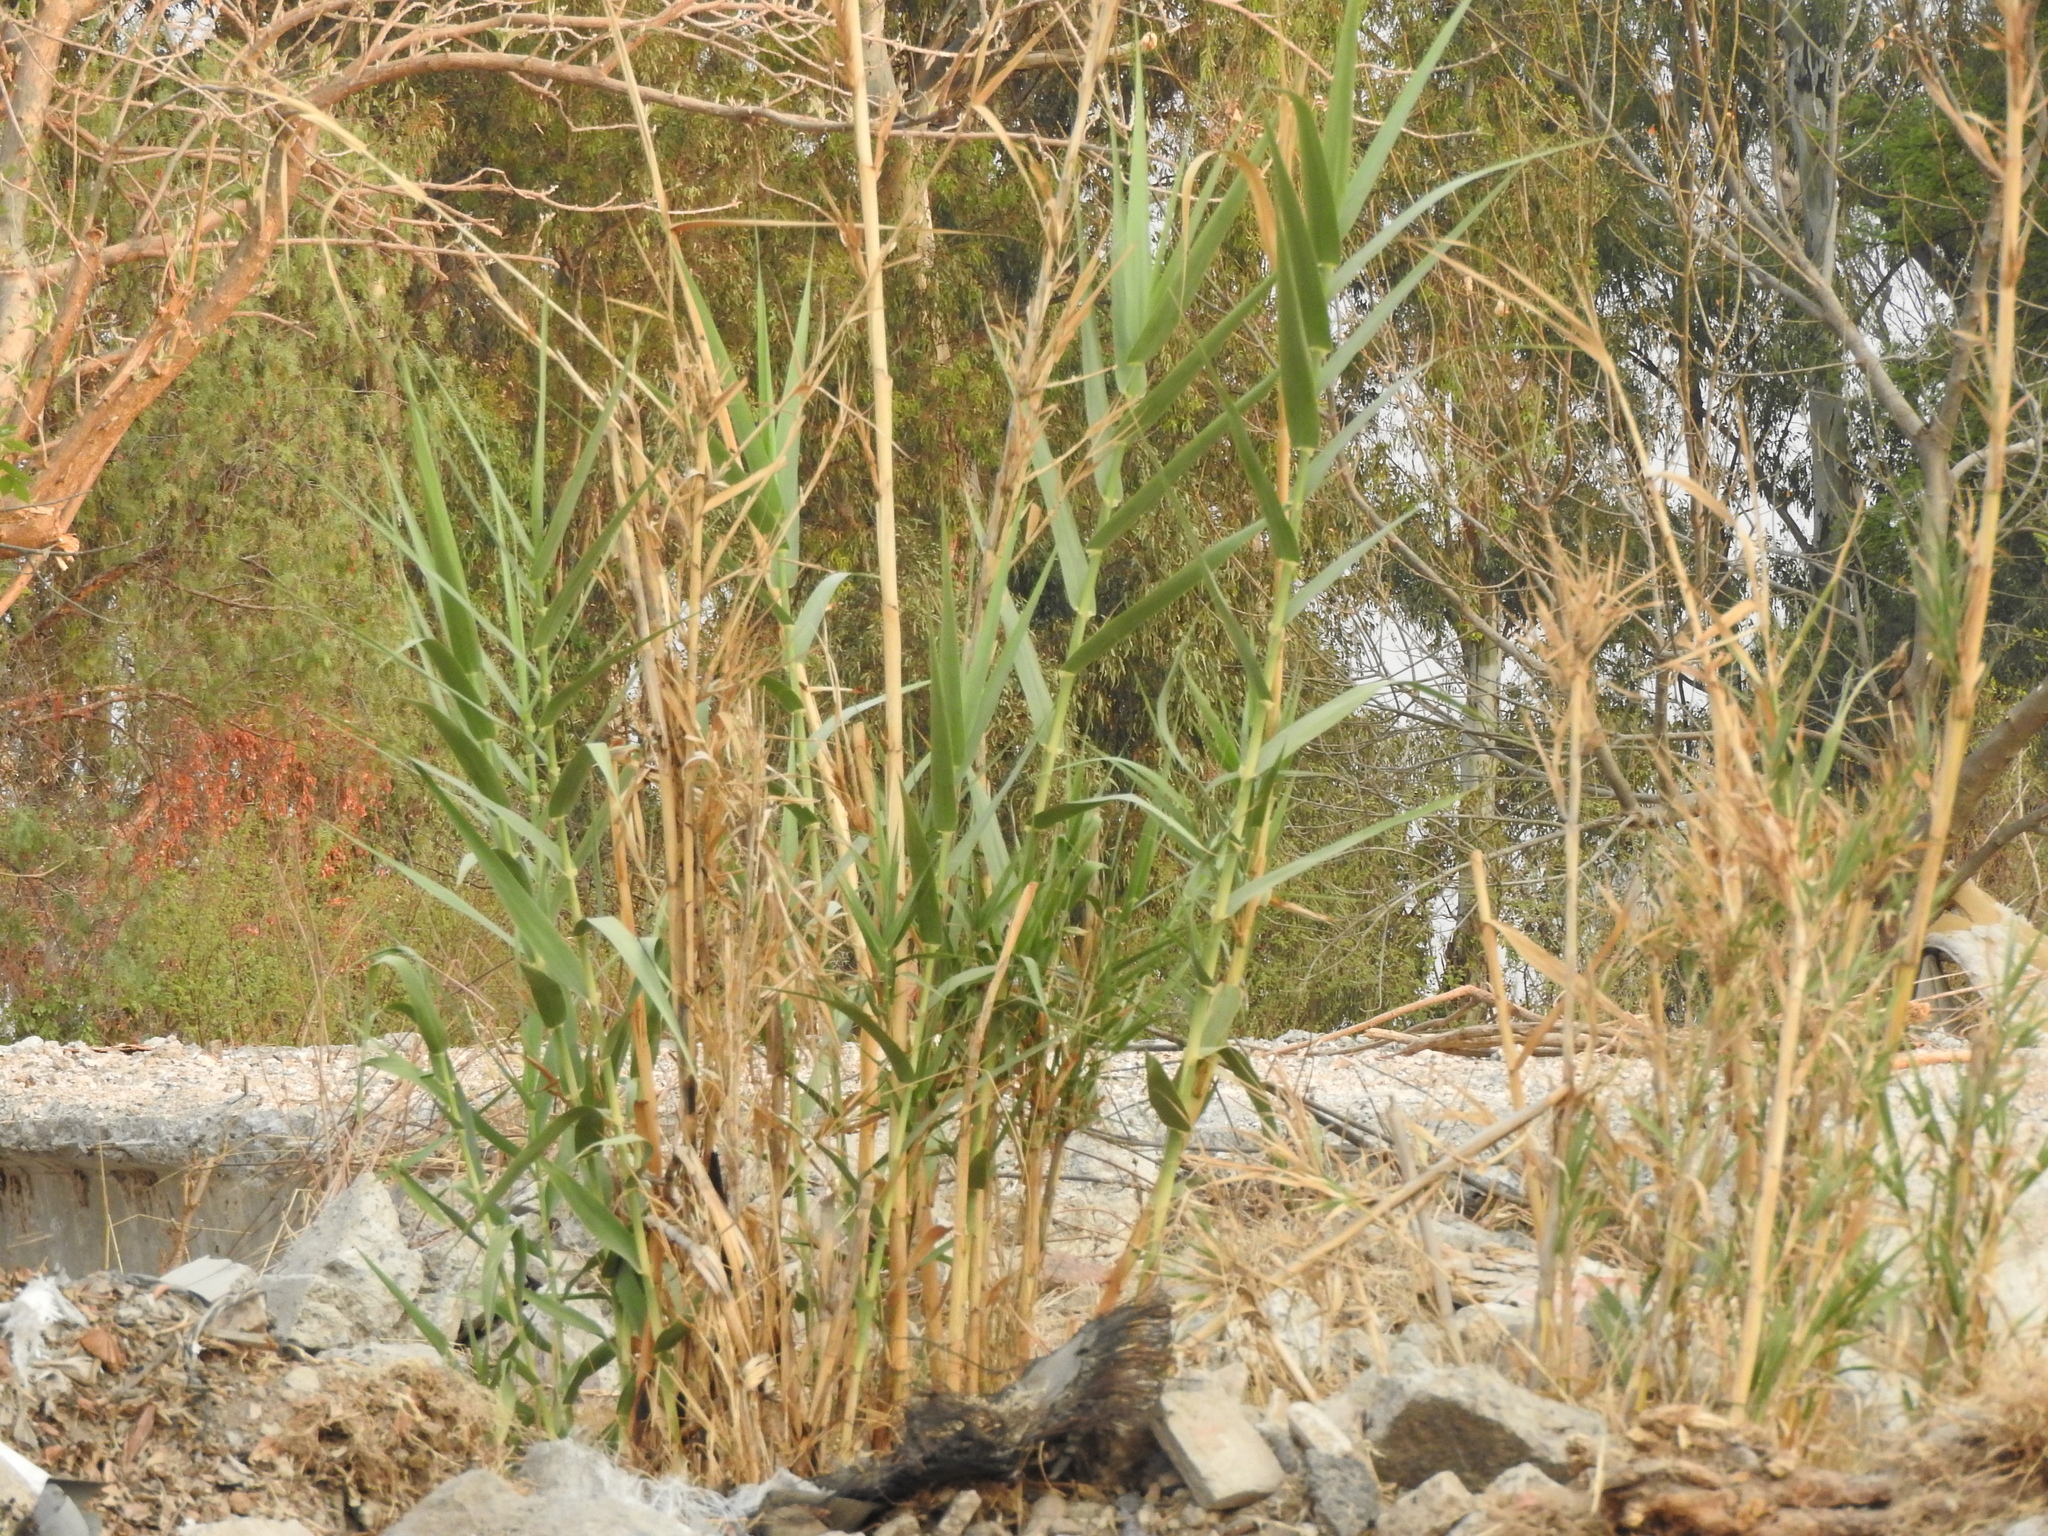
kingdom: Plantae
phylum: Tracheophyta
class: Liliopsida
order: Poales
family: Poaceae
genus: Arundo
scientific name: Arundo donax
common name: Giant reed
